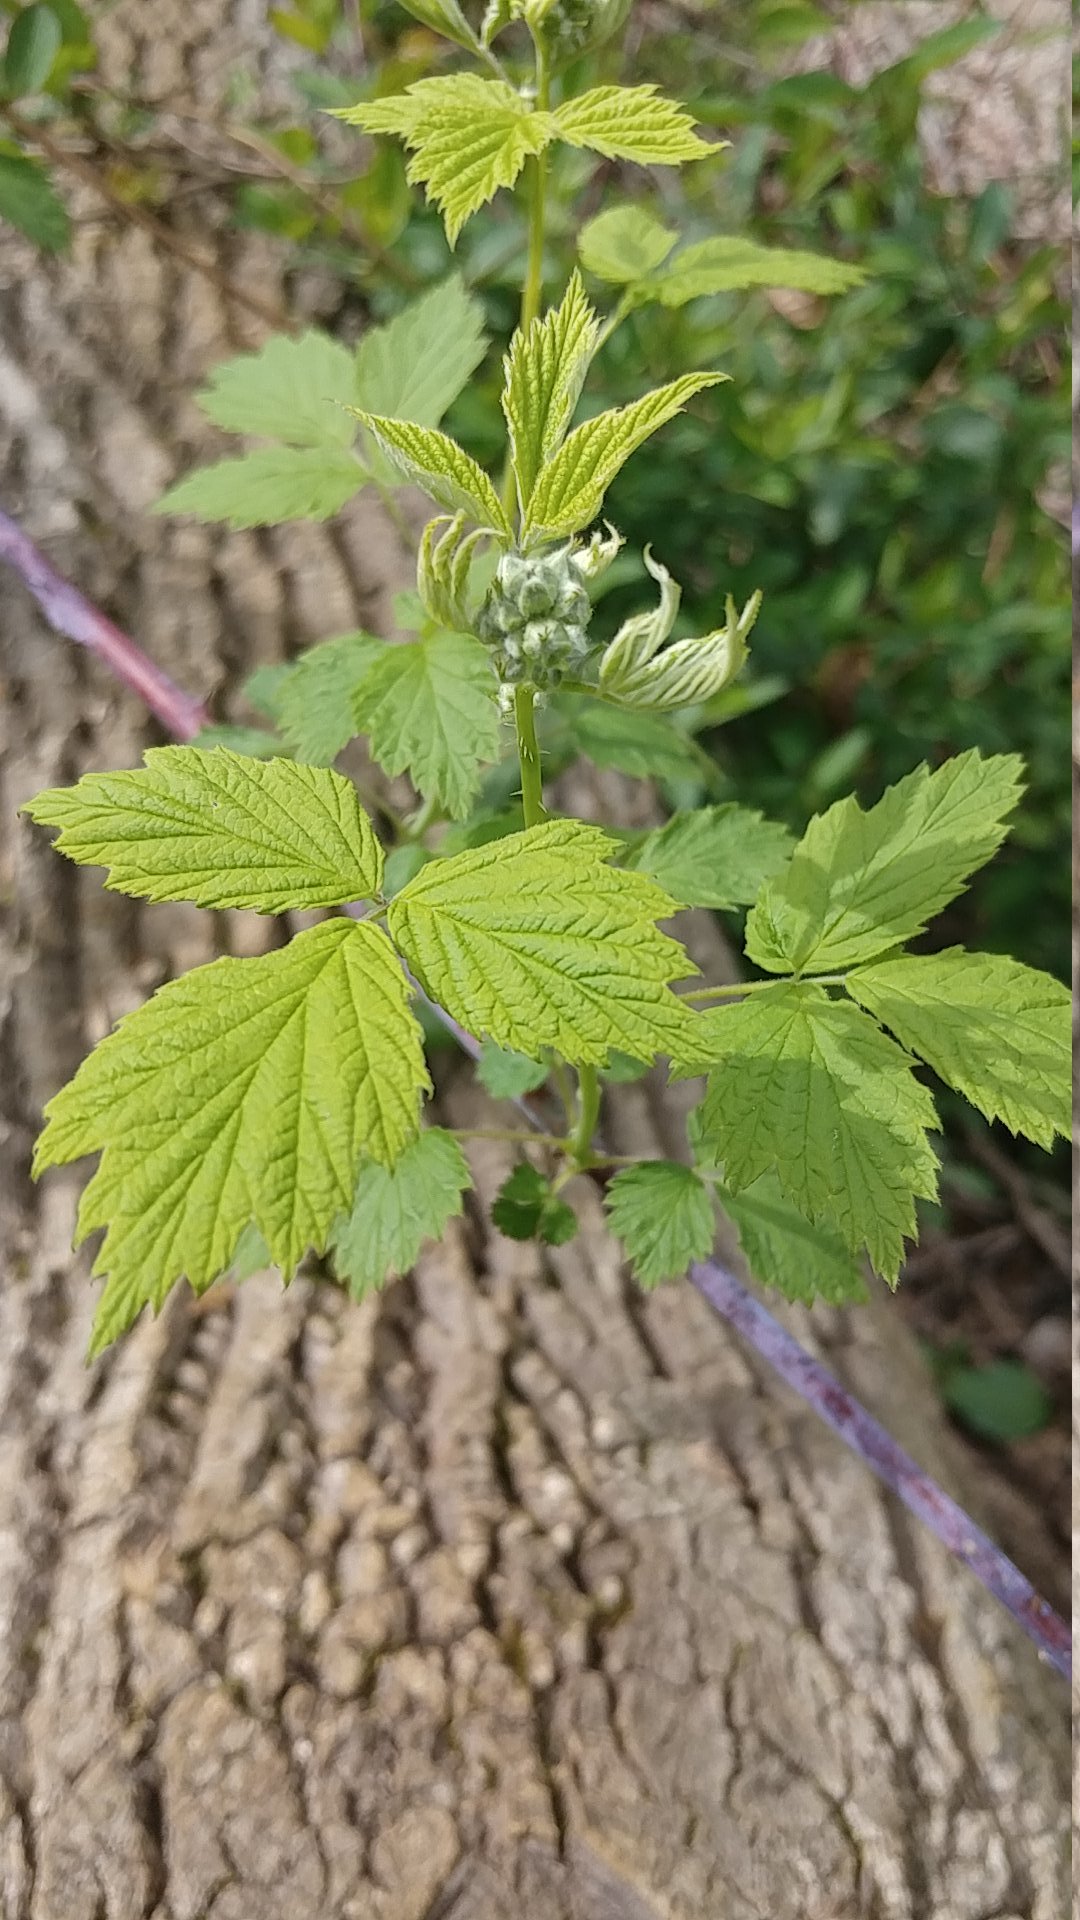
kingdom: Plantae
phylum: Tracheophyta
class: Magnoliopsida
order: Rosales
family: Rosaceae
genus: Rubus
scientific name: Rubus occidentalis
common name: Black raspberry
